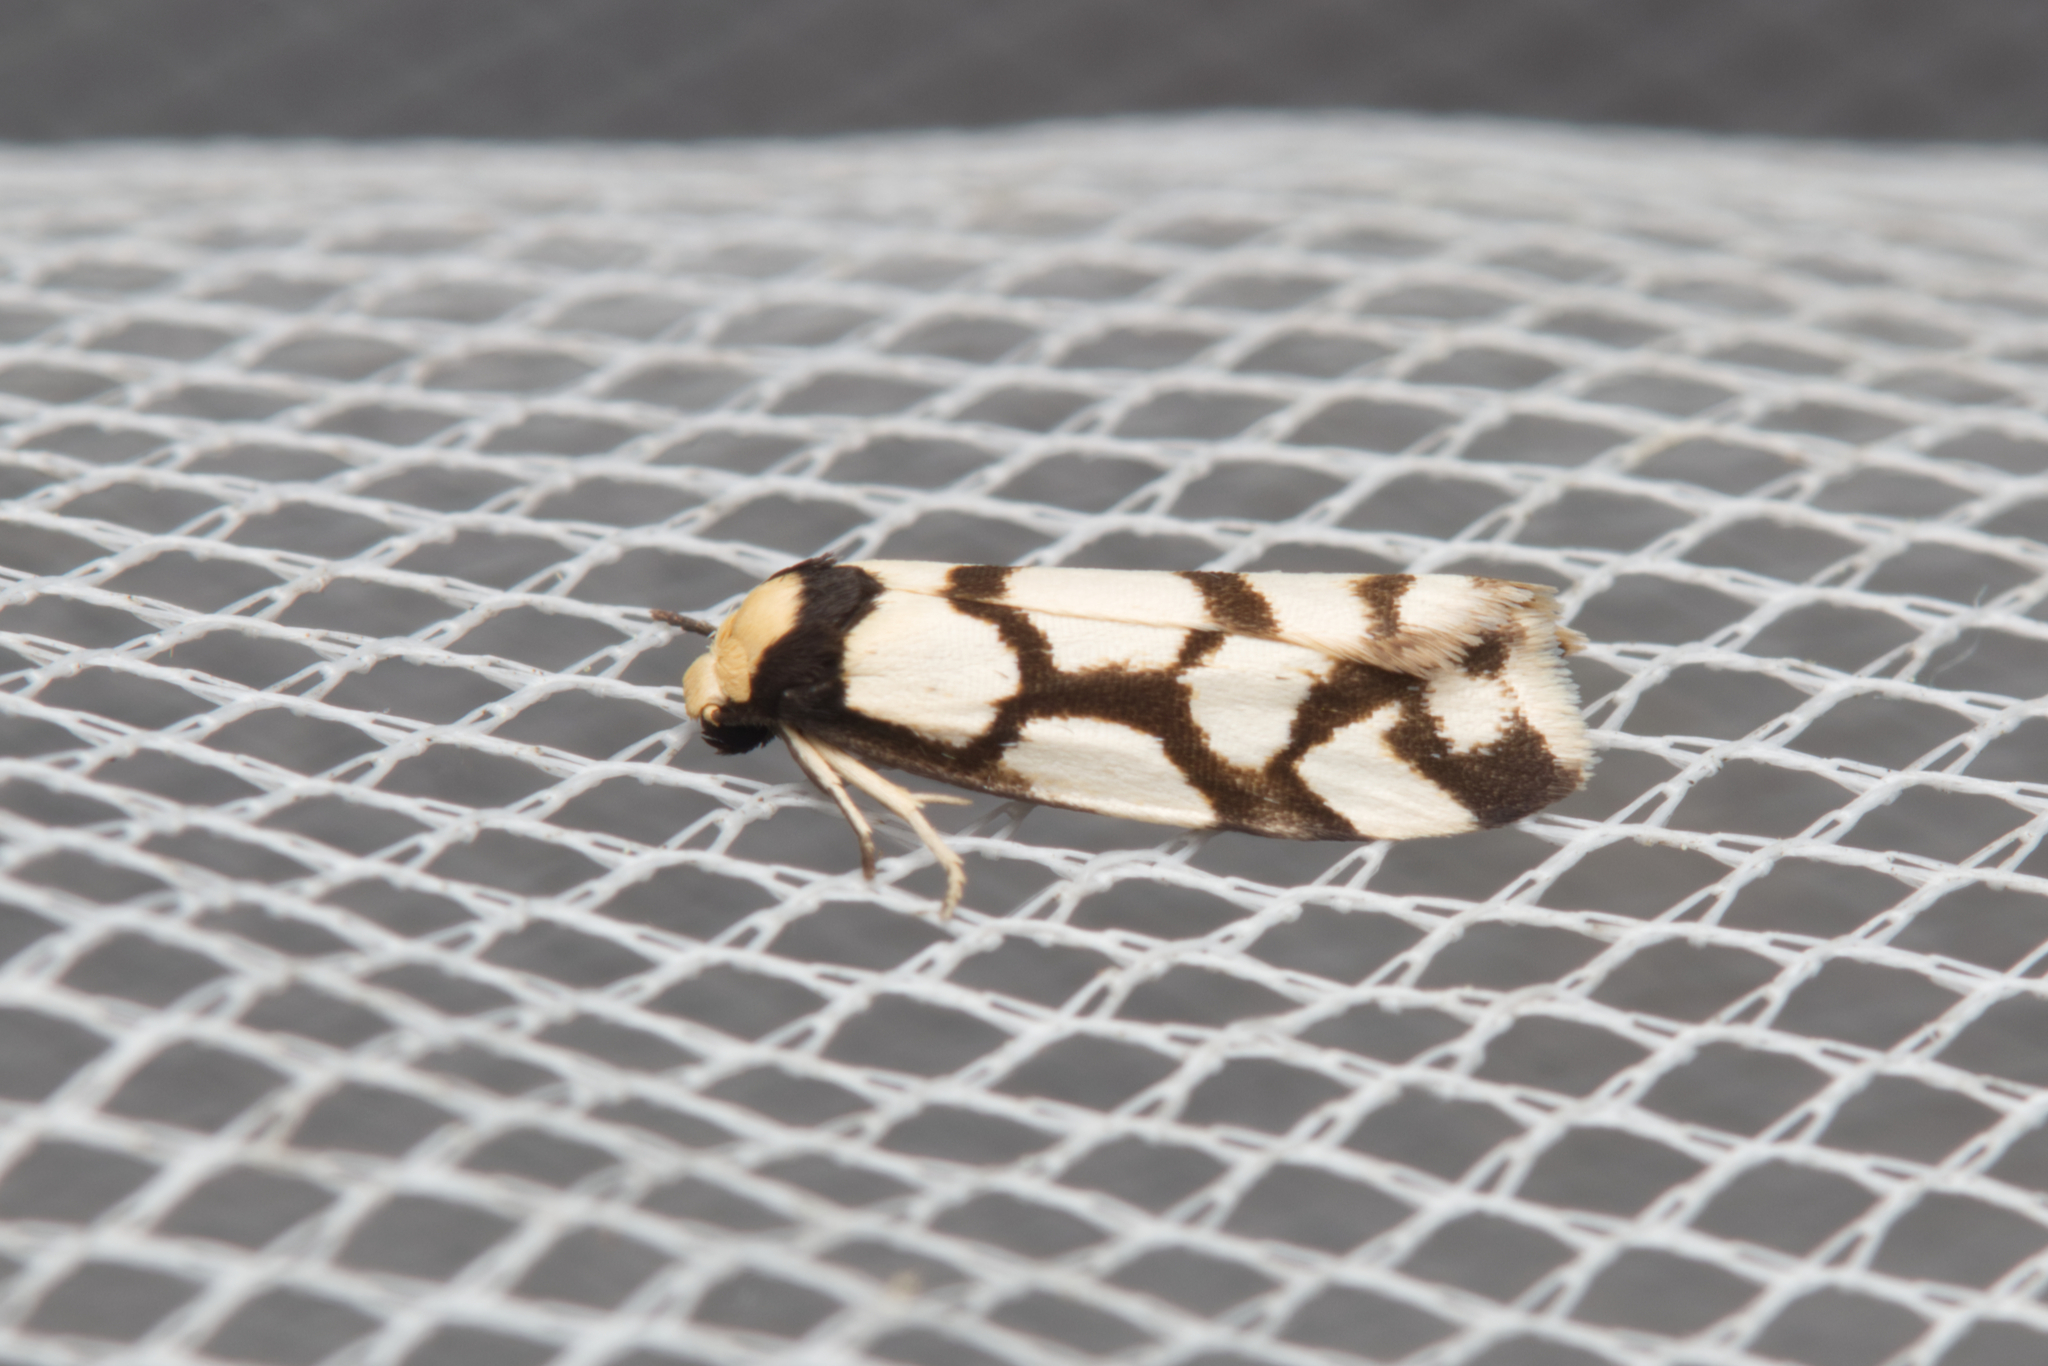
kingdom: Animalia
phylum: Arthropoda
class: Insecta
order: Lepidoptera
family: Erebidae
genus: Scaptesyle
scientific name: Scaptesyle dichotoma
